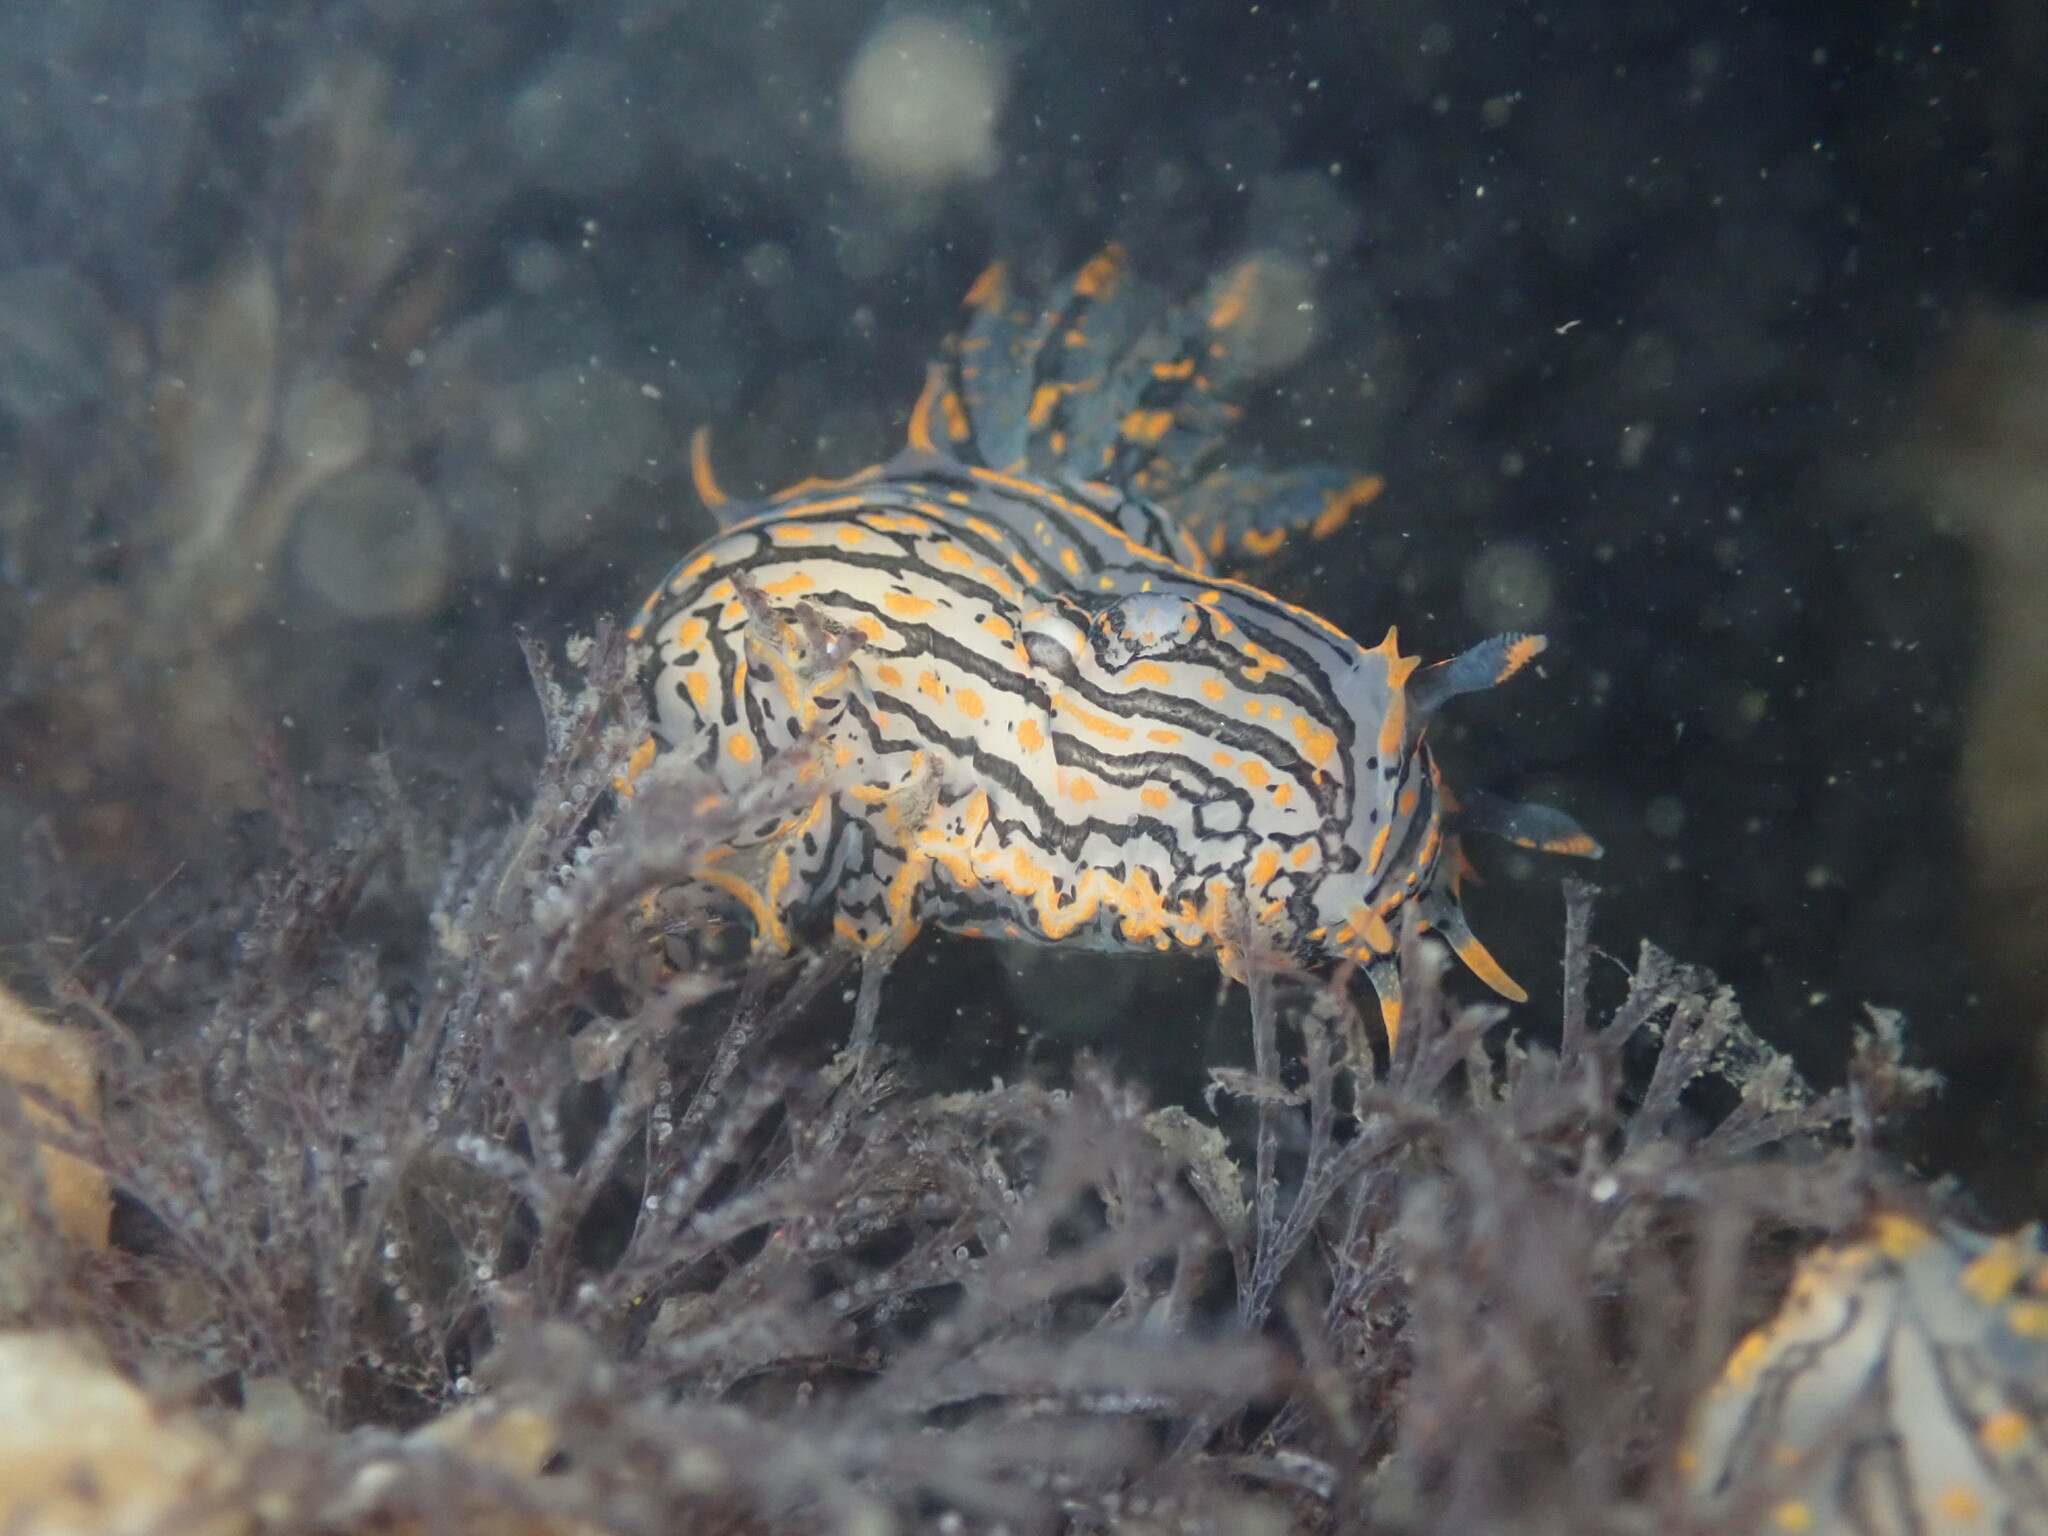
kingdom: Animalia
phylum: Mollusca
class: Gastropoda
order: Nudibranchia
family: Polyceridae
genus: Polycera
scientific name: Polycera atra
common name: Orange-spike polycera
